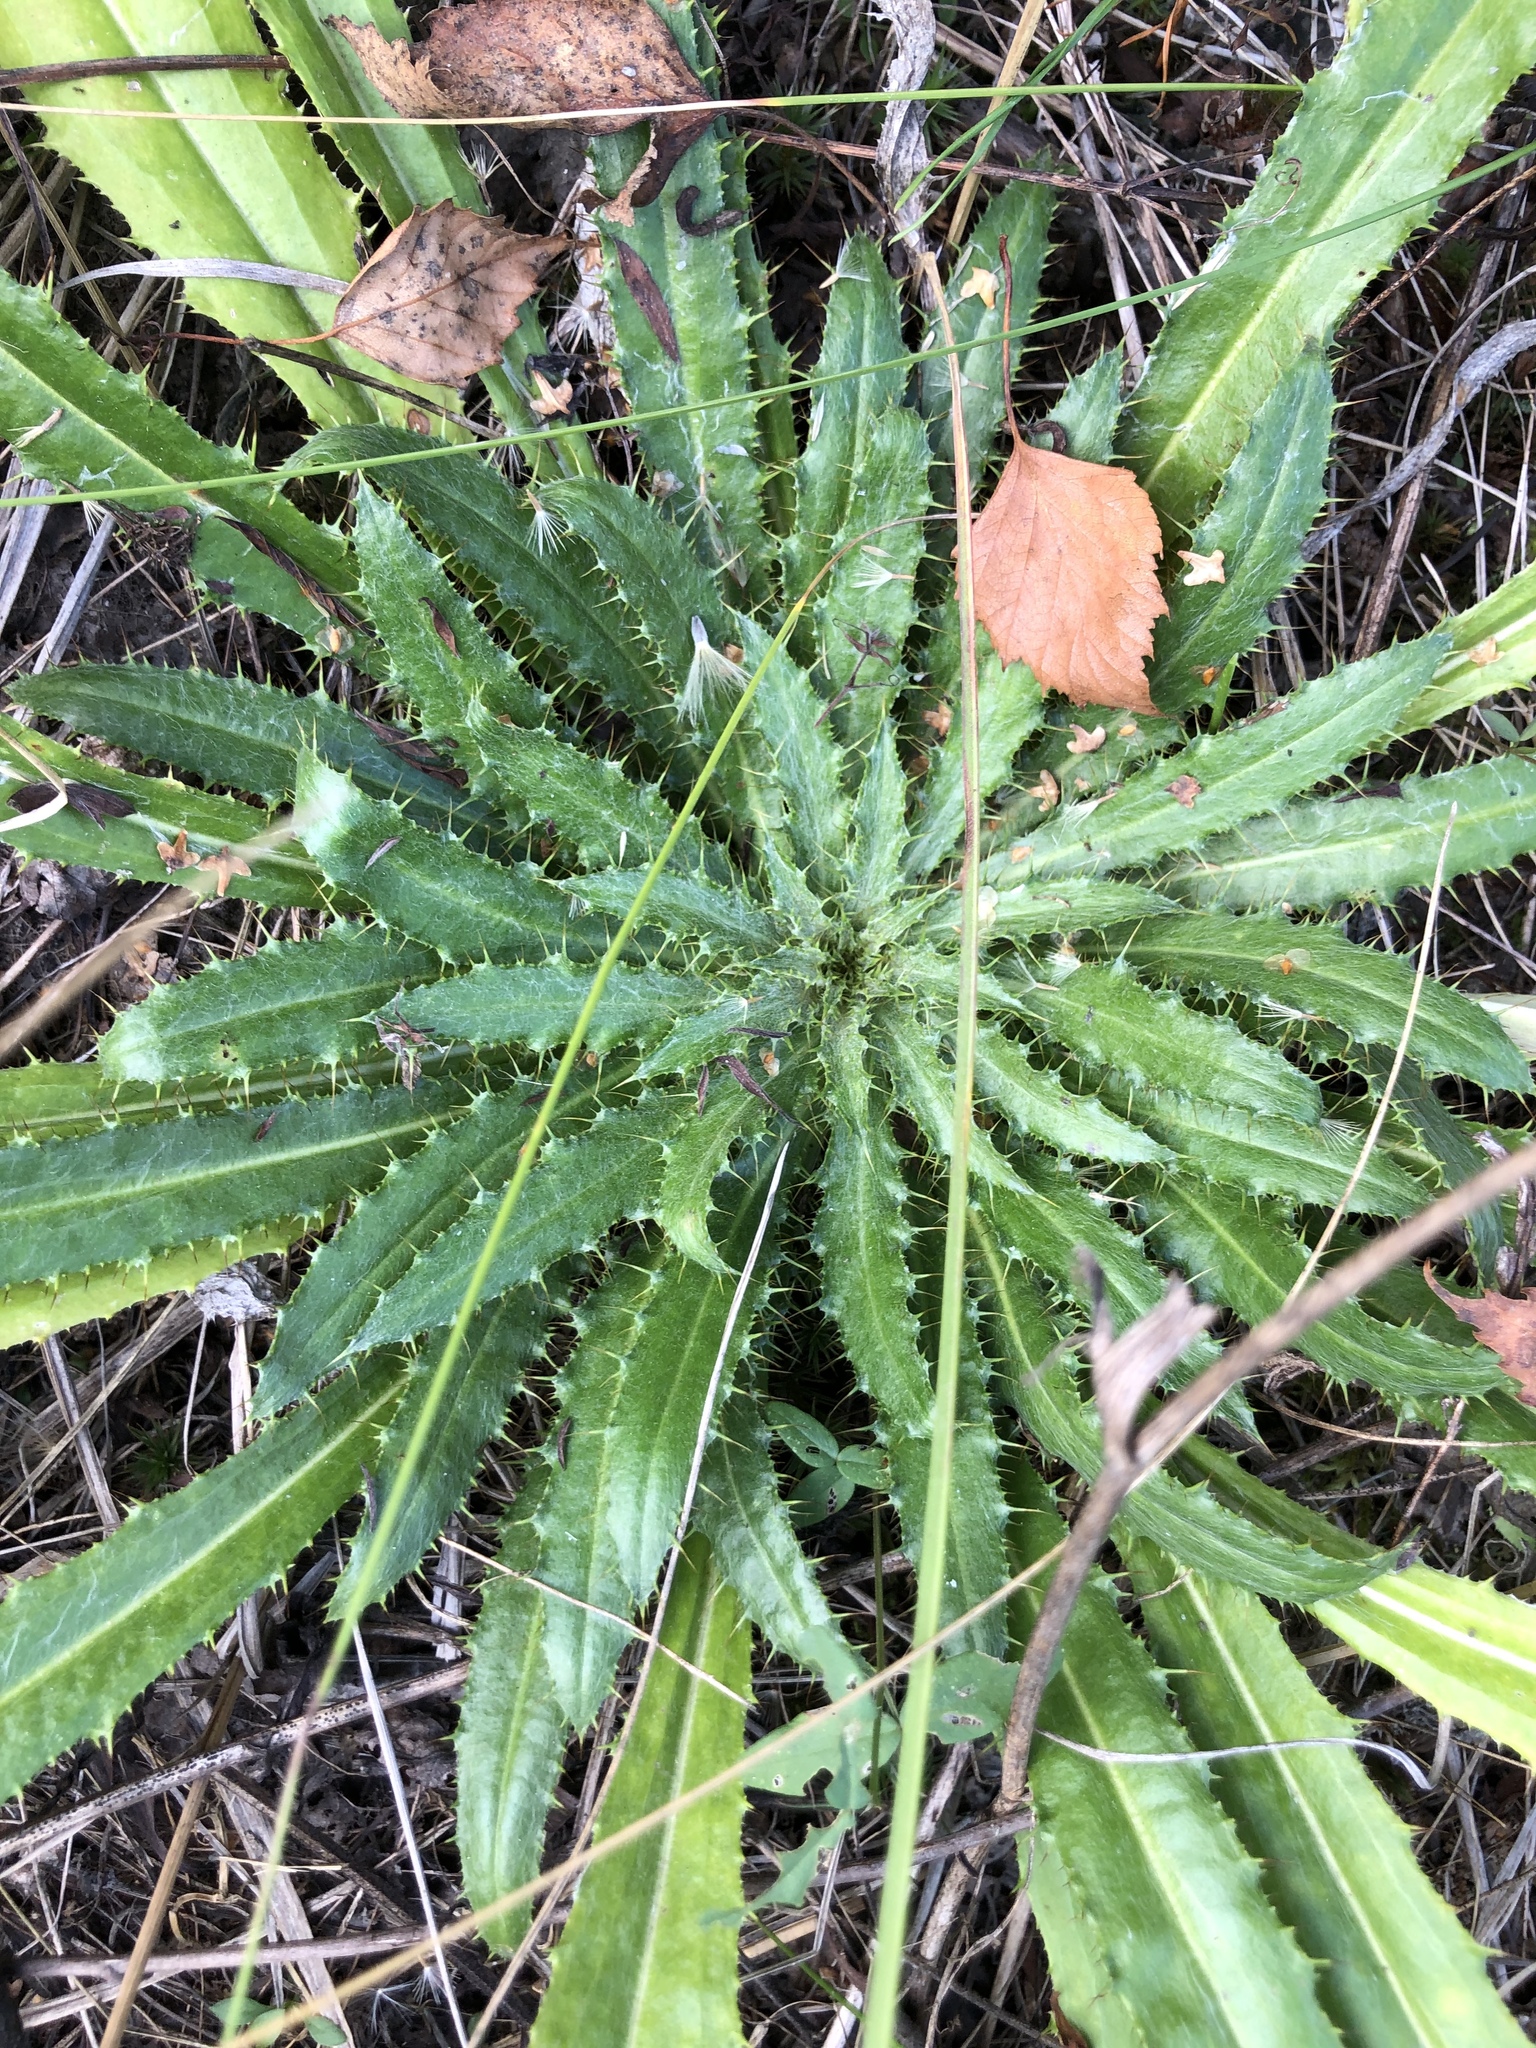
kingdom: Plantae
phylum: Tracheophyta
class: Magnoliopsida
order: Asterales
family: Asteraceae
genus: Carlina
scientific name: Carlina biebersteinii
